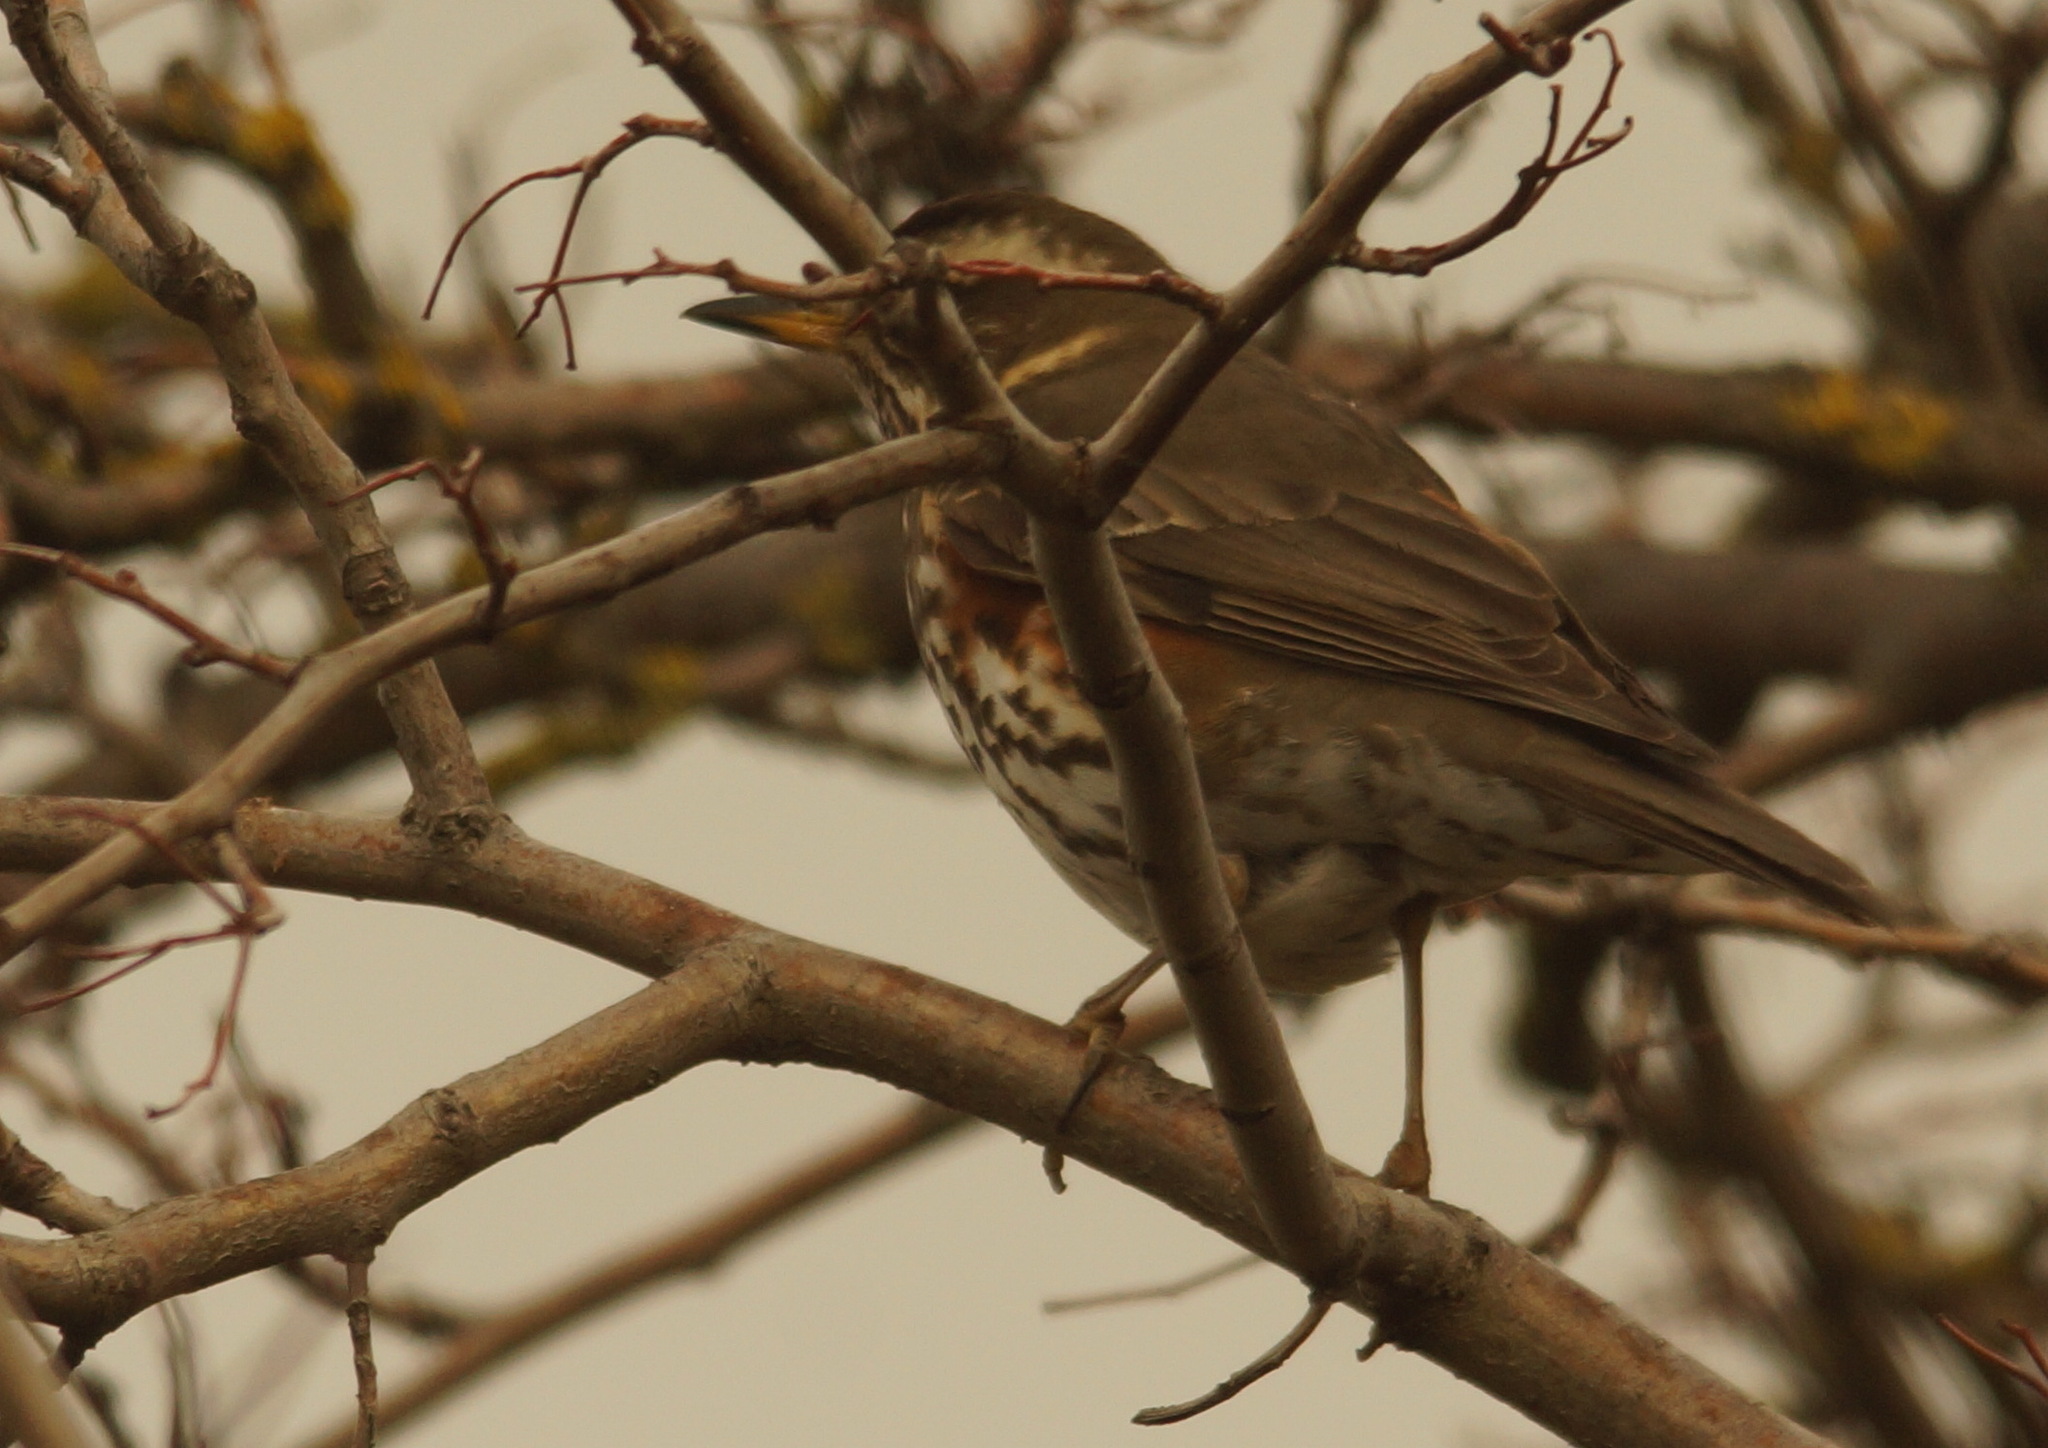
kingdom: Animalia
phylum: Chordata
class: Aves
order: Passeriformes
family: Turdidae
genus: Turdus
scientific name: Turdus iliacus
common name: Redwing
